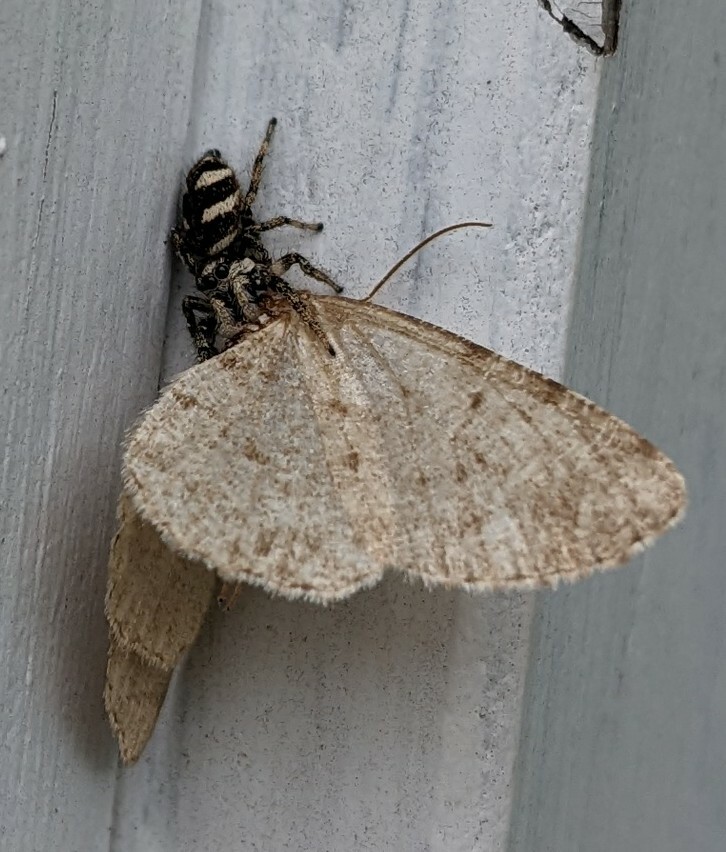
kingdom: Animalia
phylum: Arthropoda
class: Arachnida
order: Araneae
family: Salticidae
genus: Salticus
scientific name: Salticus scenicus
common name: Zebra jumper
